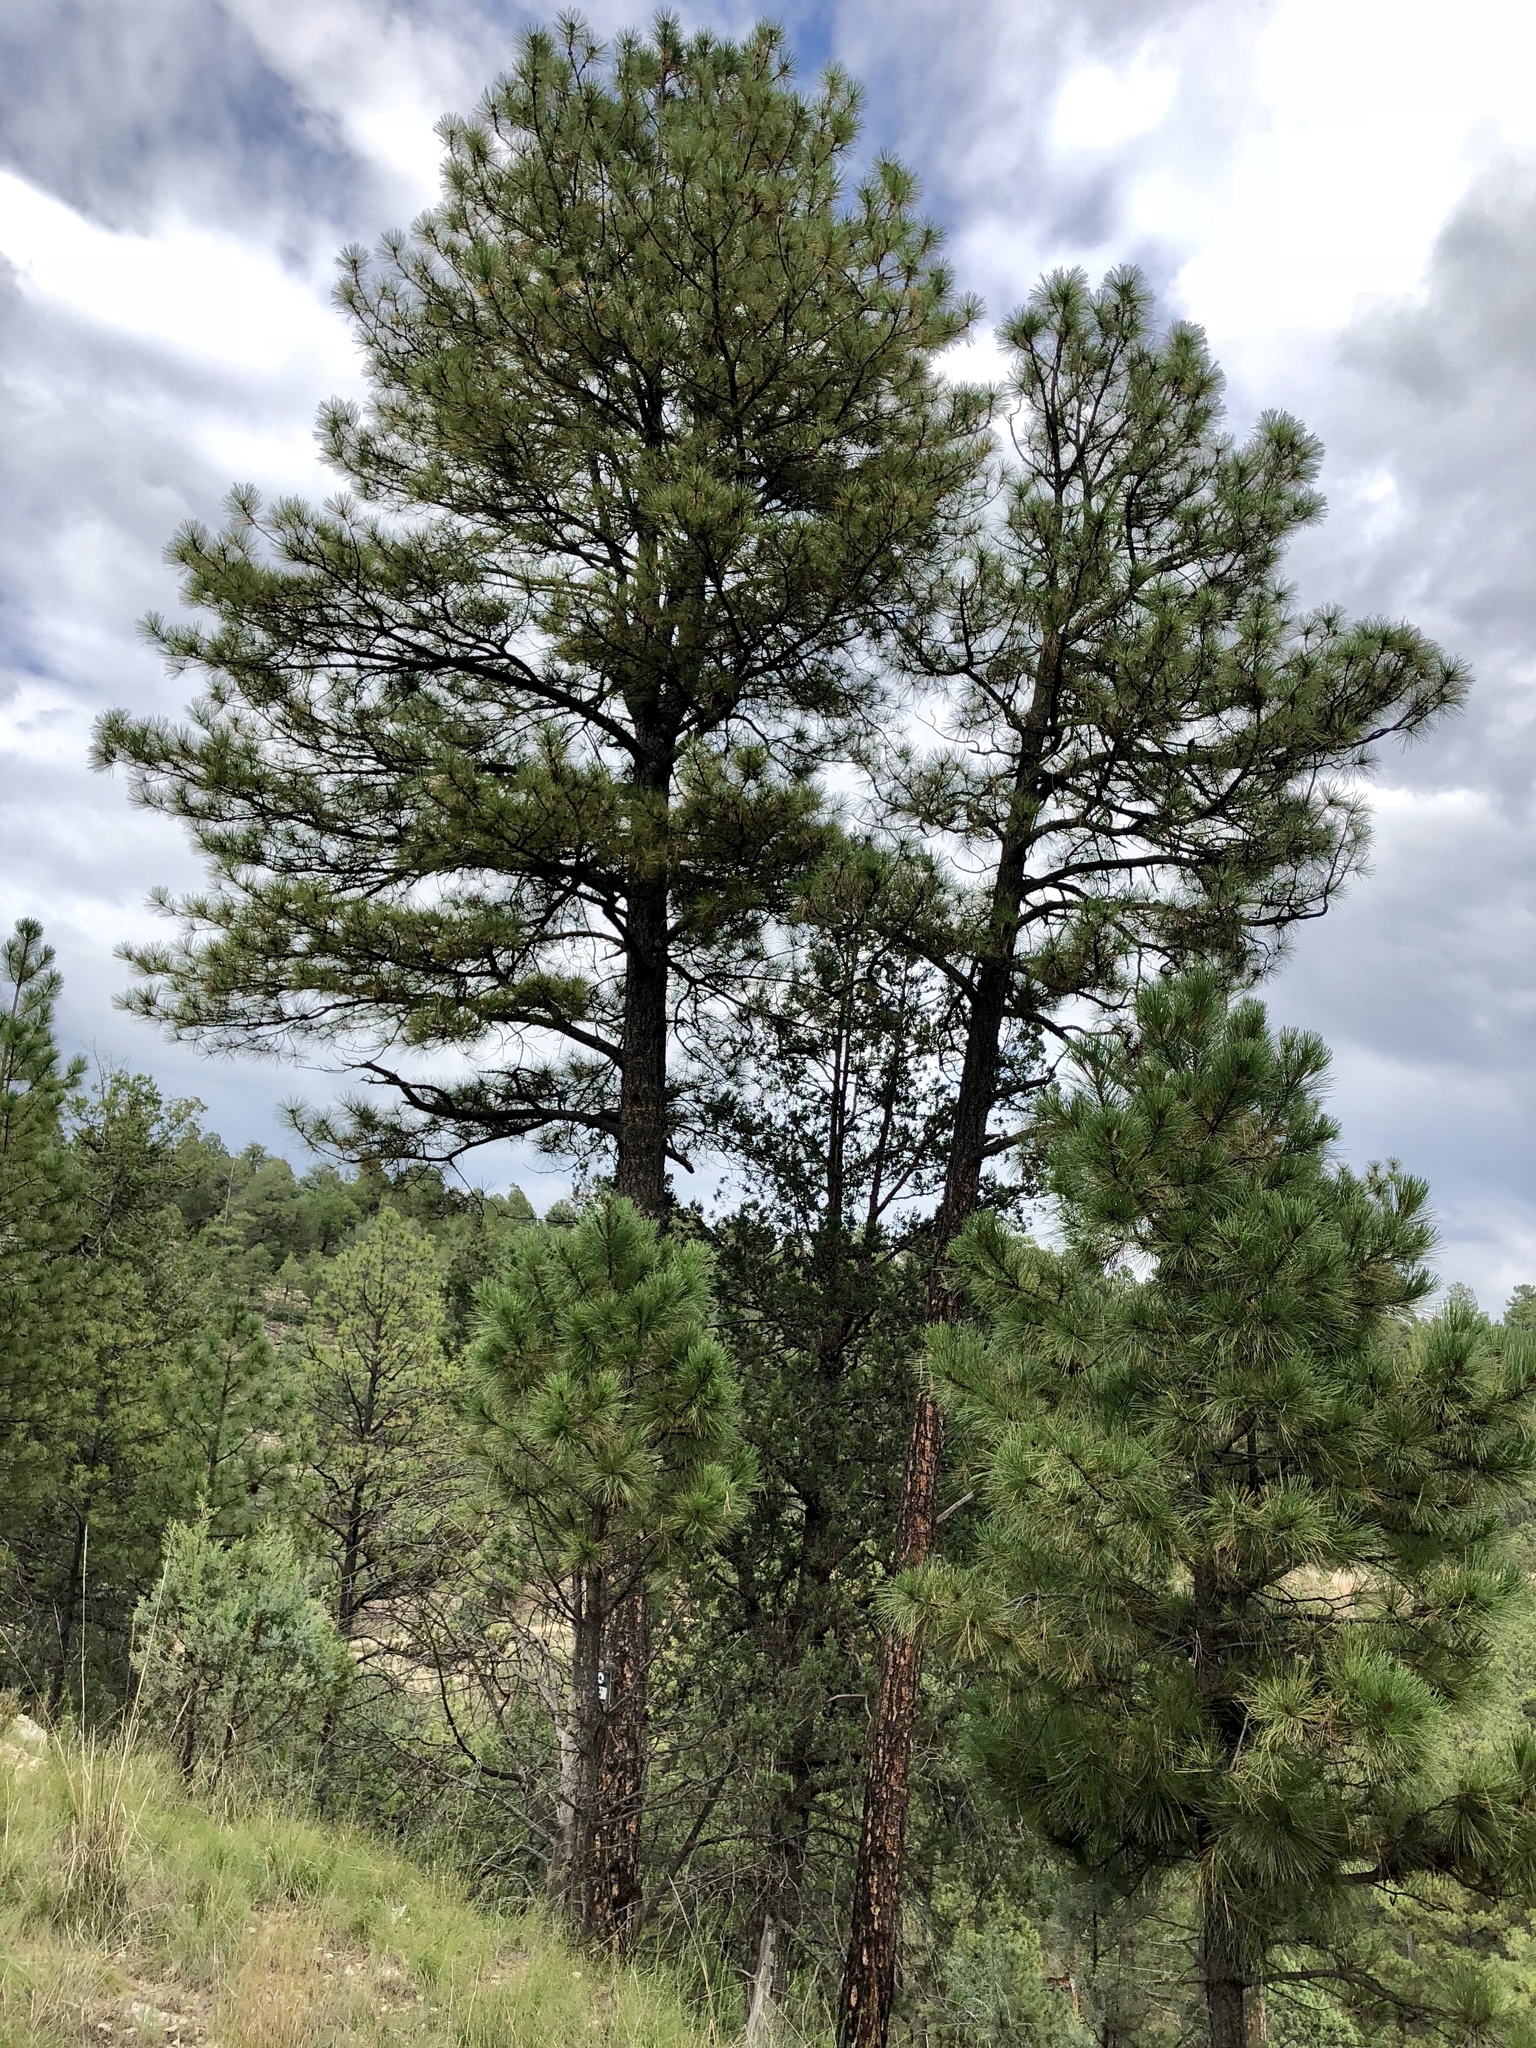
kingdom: Plantae
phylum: Tracheophyta
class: Pinopsida
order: Pinales
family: Pinaceae
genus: Pinus
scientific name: Pinus ponderosa
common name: Western yellow-pine
